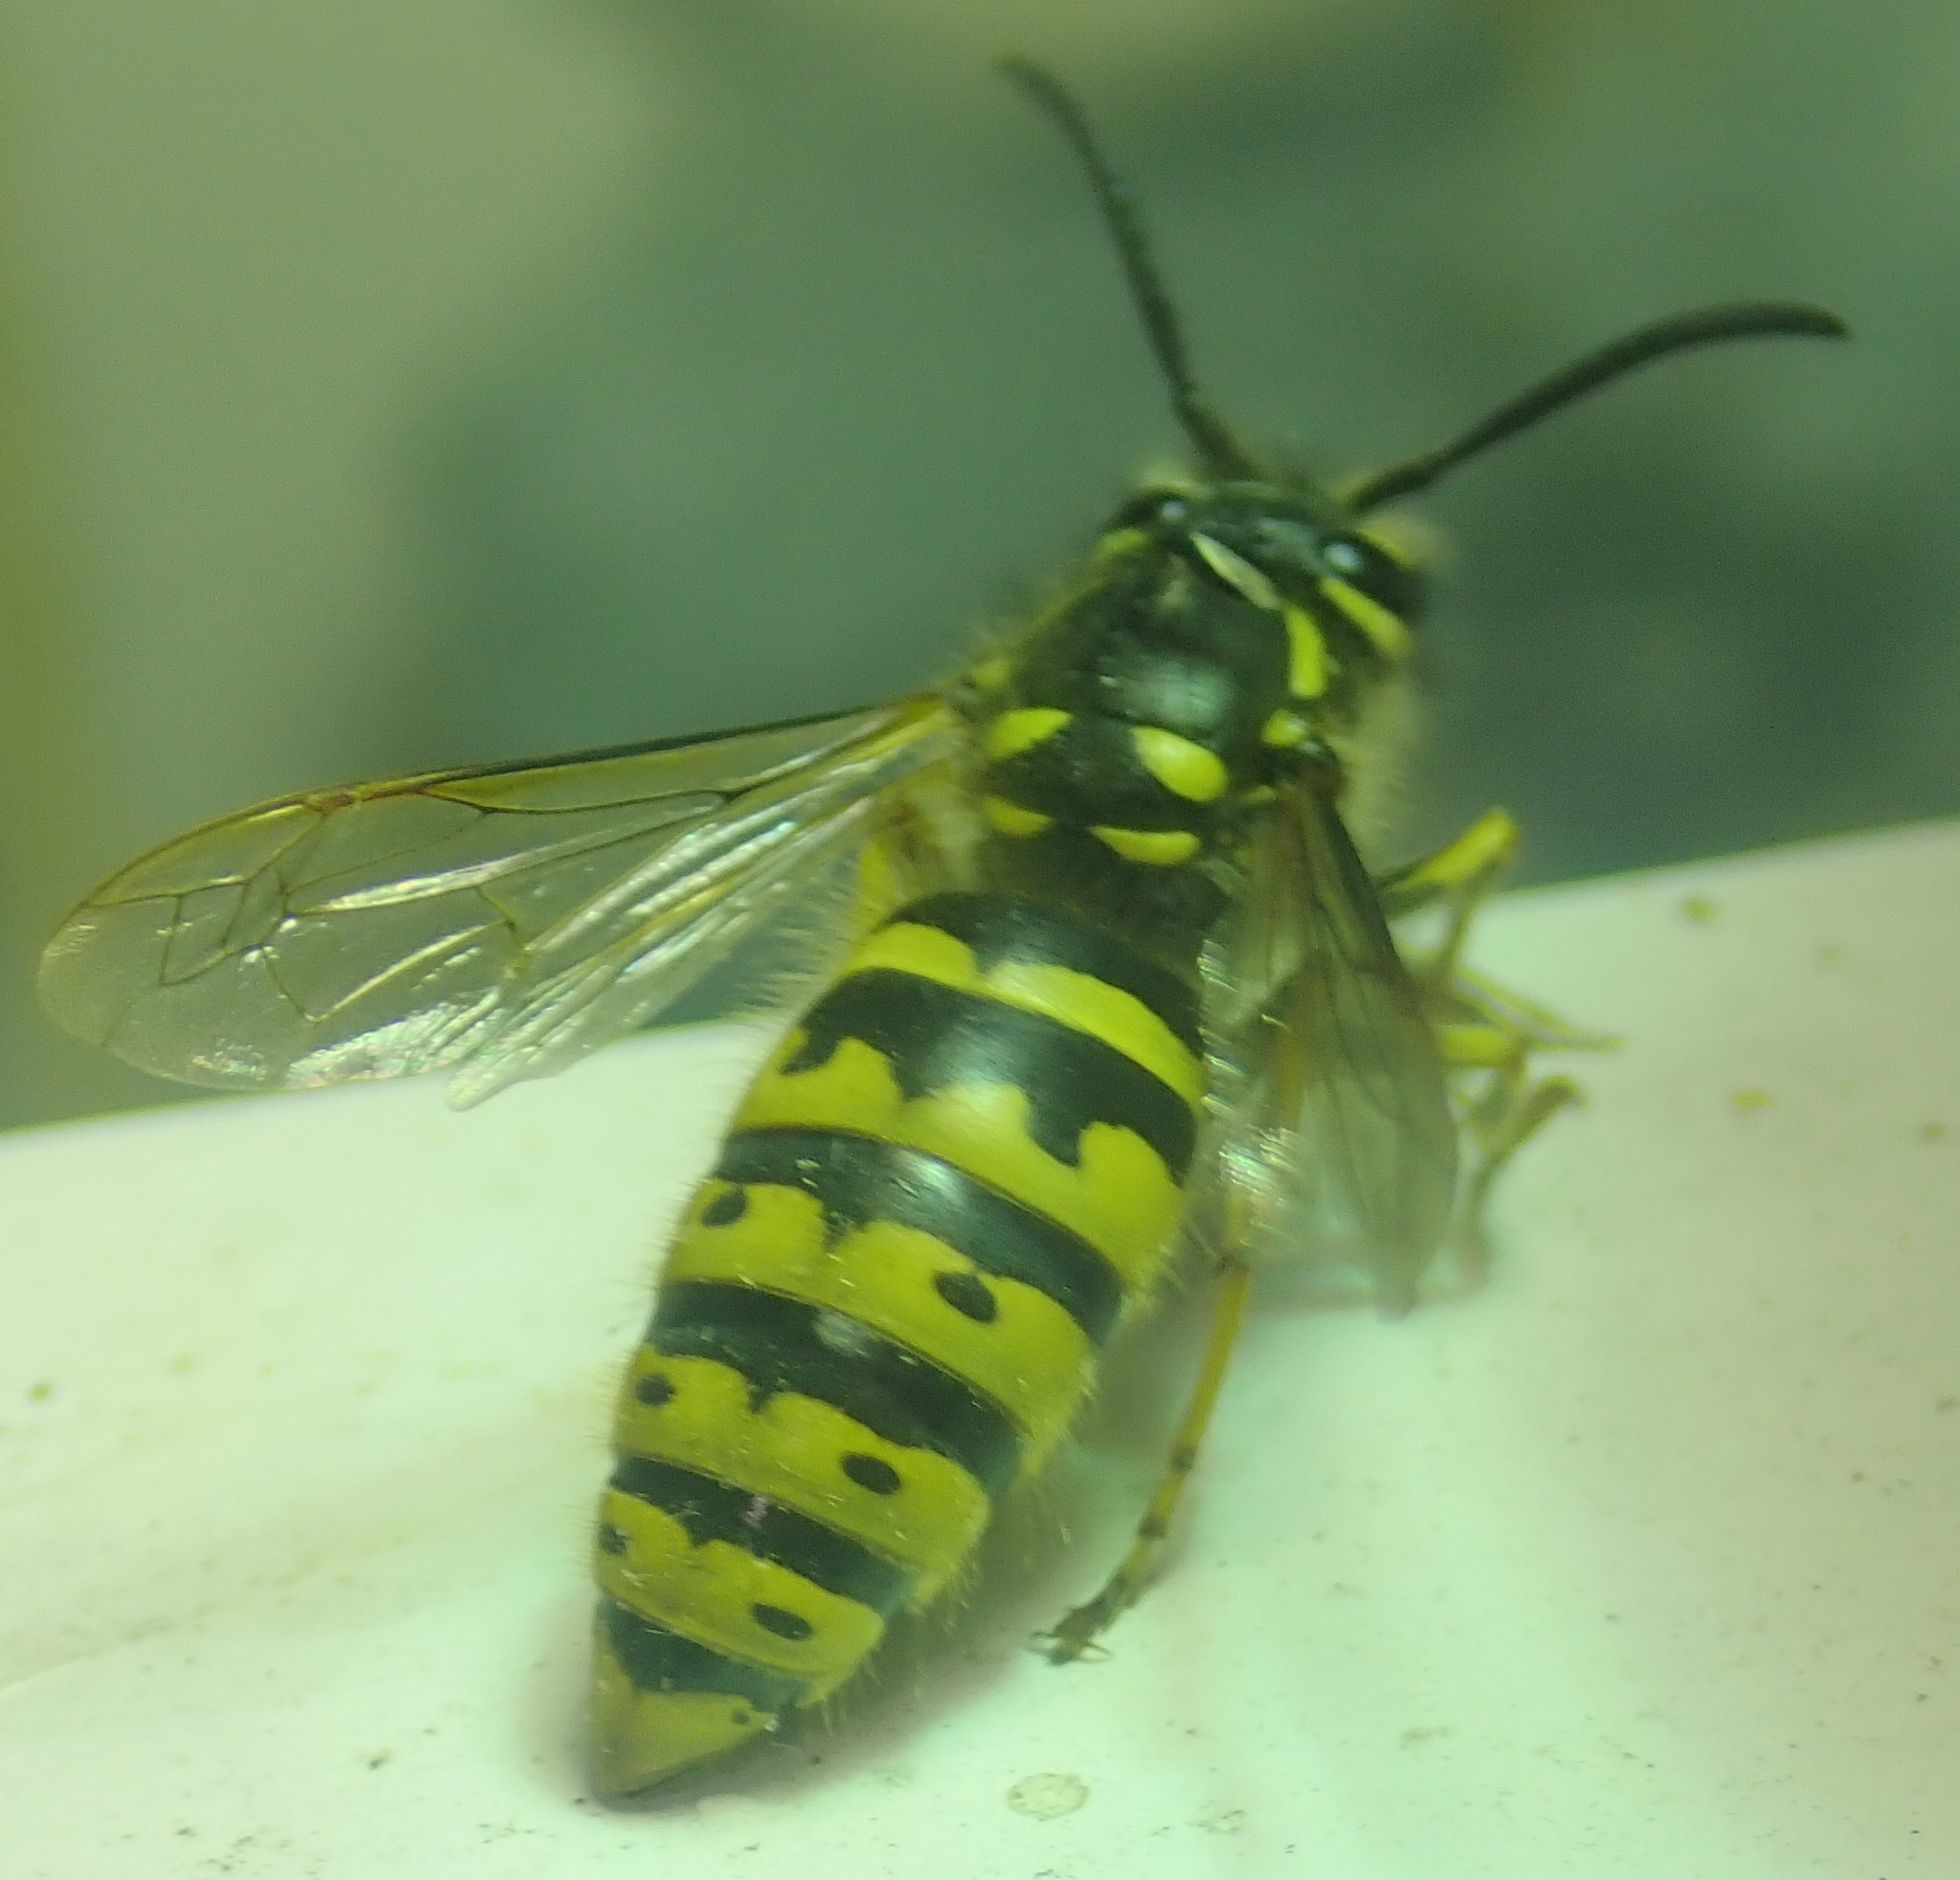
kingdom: Animalia
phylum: Arthropoda
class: Insecta
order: Hymenoptera
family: Vespidae
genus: Vespula
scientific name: Vespula vulgaris
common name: Common wasp
